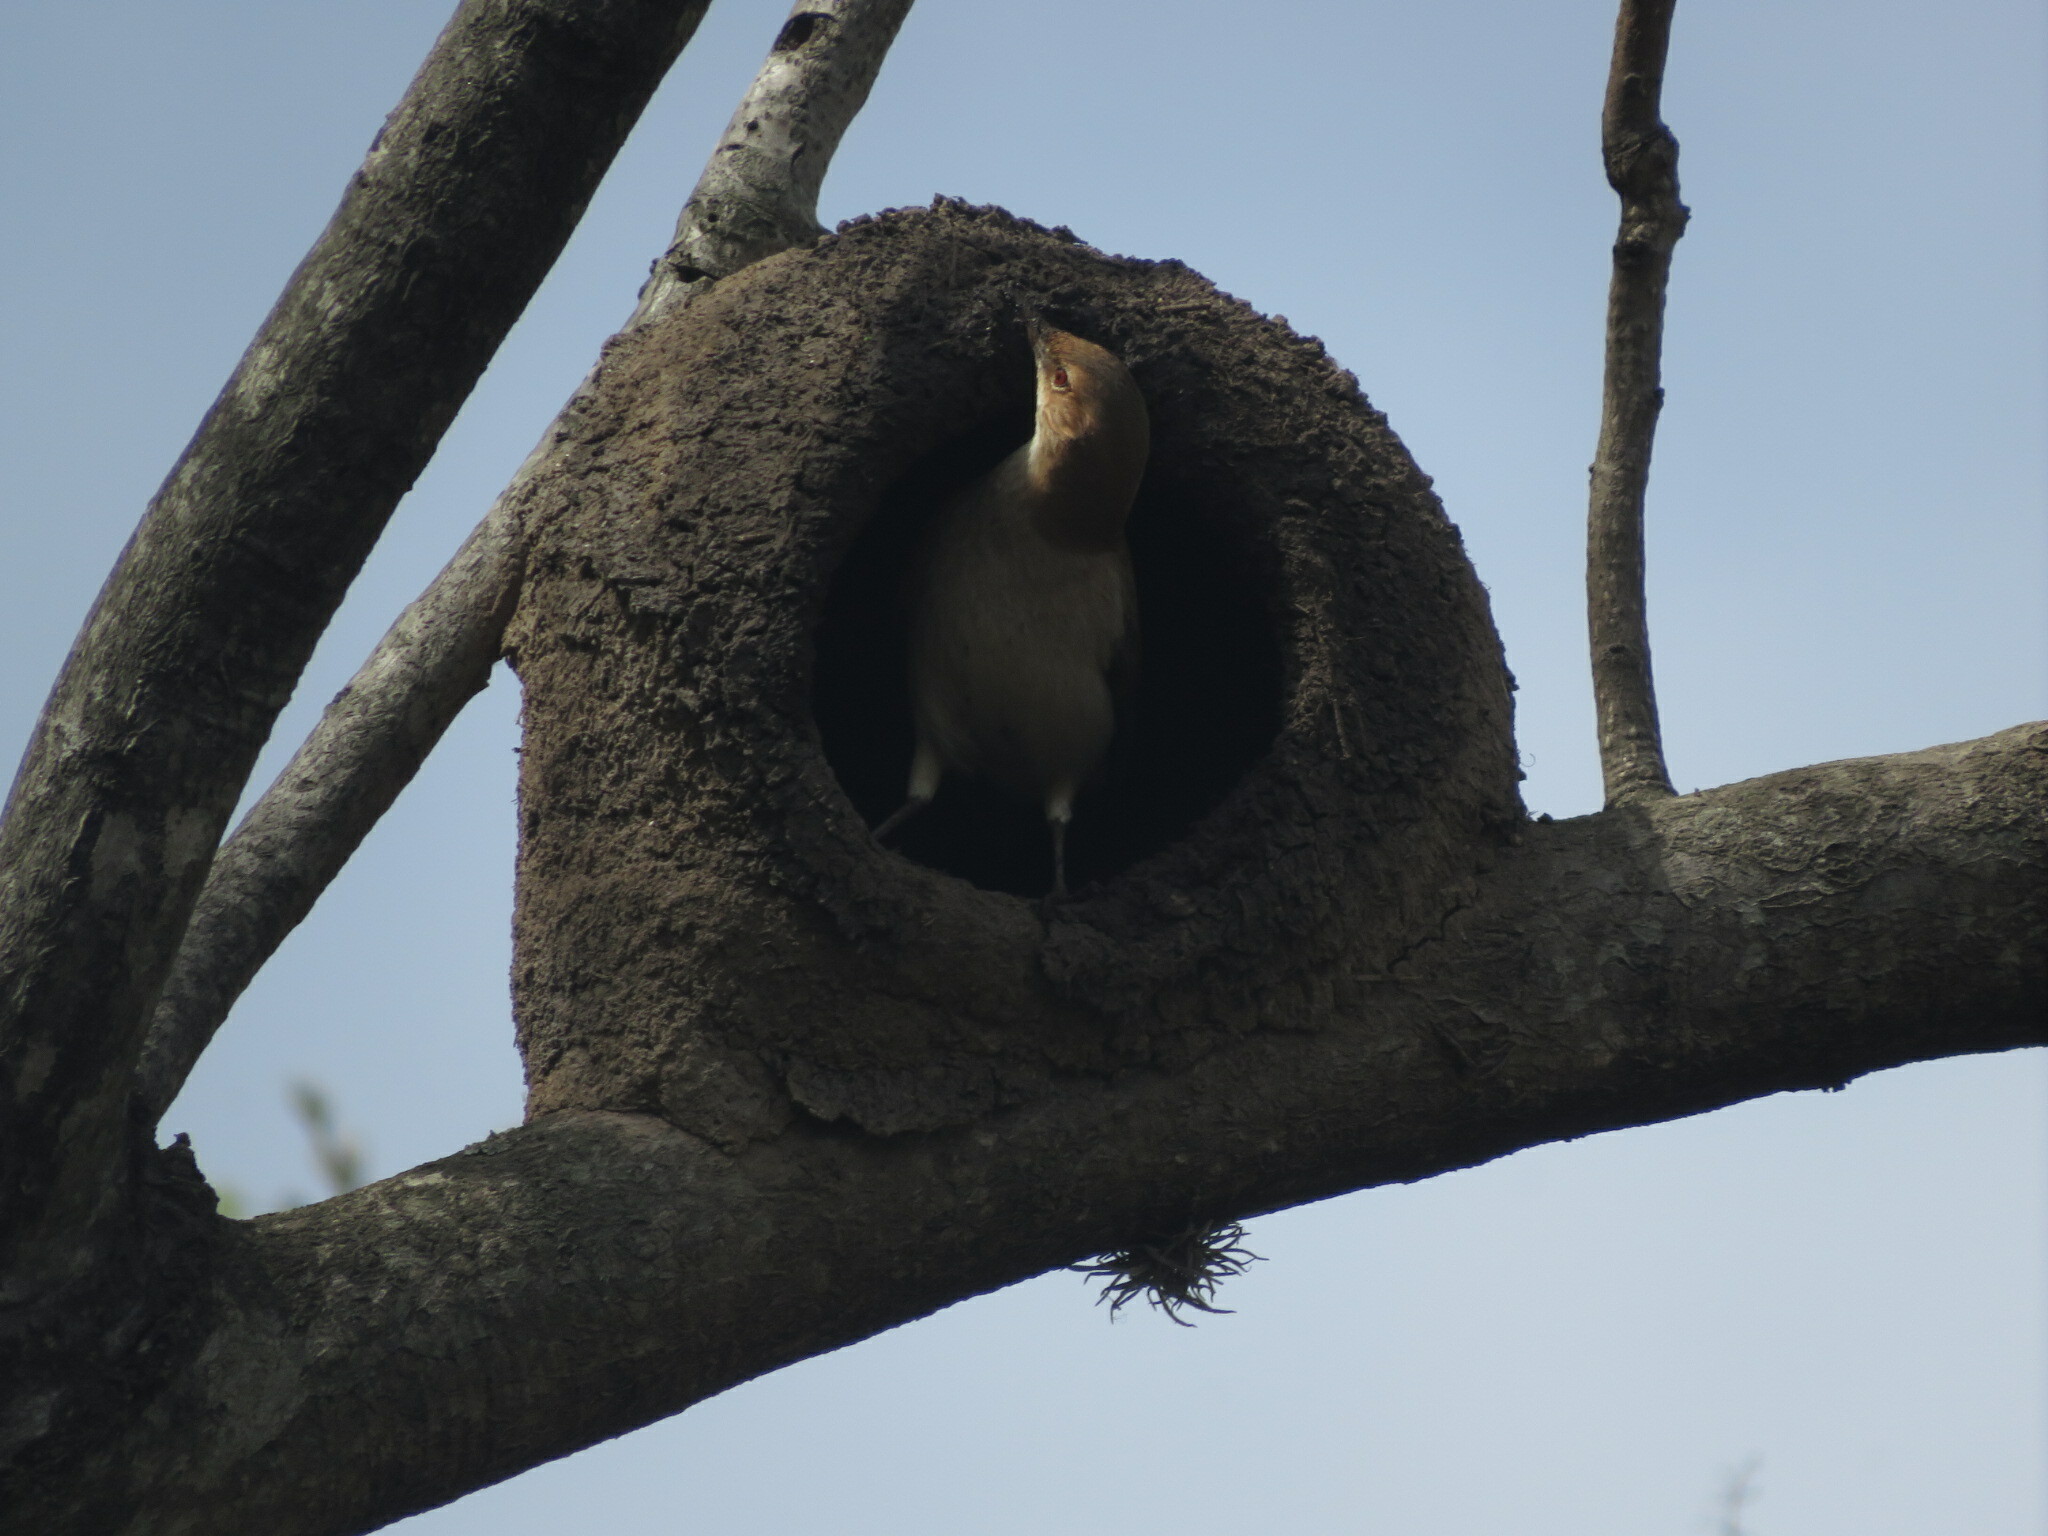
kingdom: Animalia
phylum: Chordata
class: Aves
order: Passeriformes
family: Furnariidae
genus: Furnarius
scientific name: Furnarius rufus
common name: Rufous hornero
